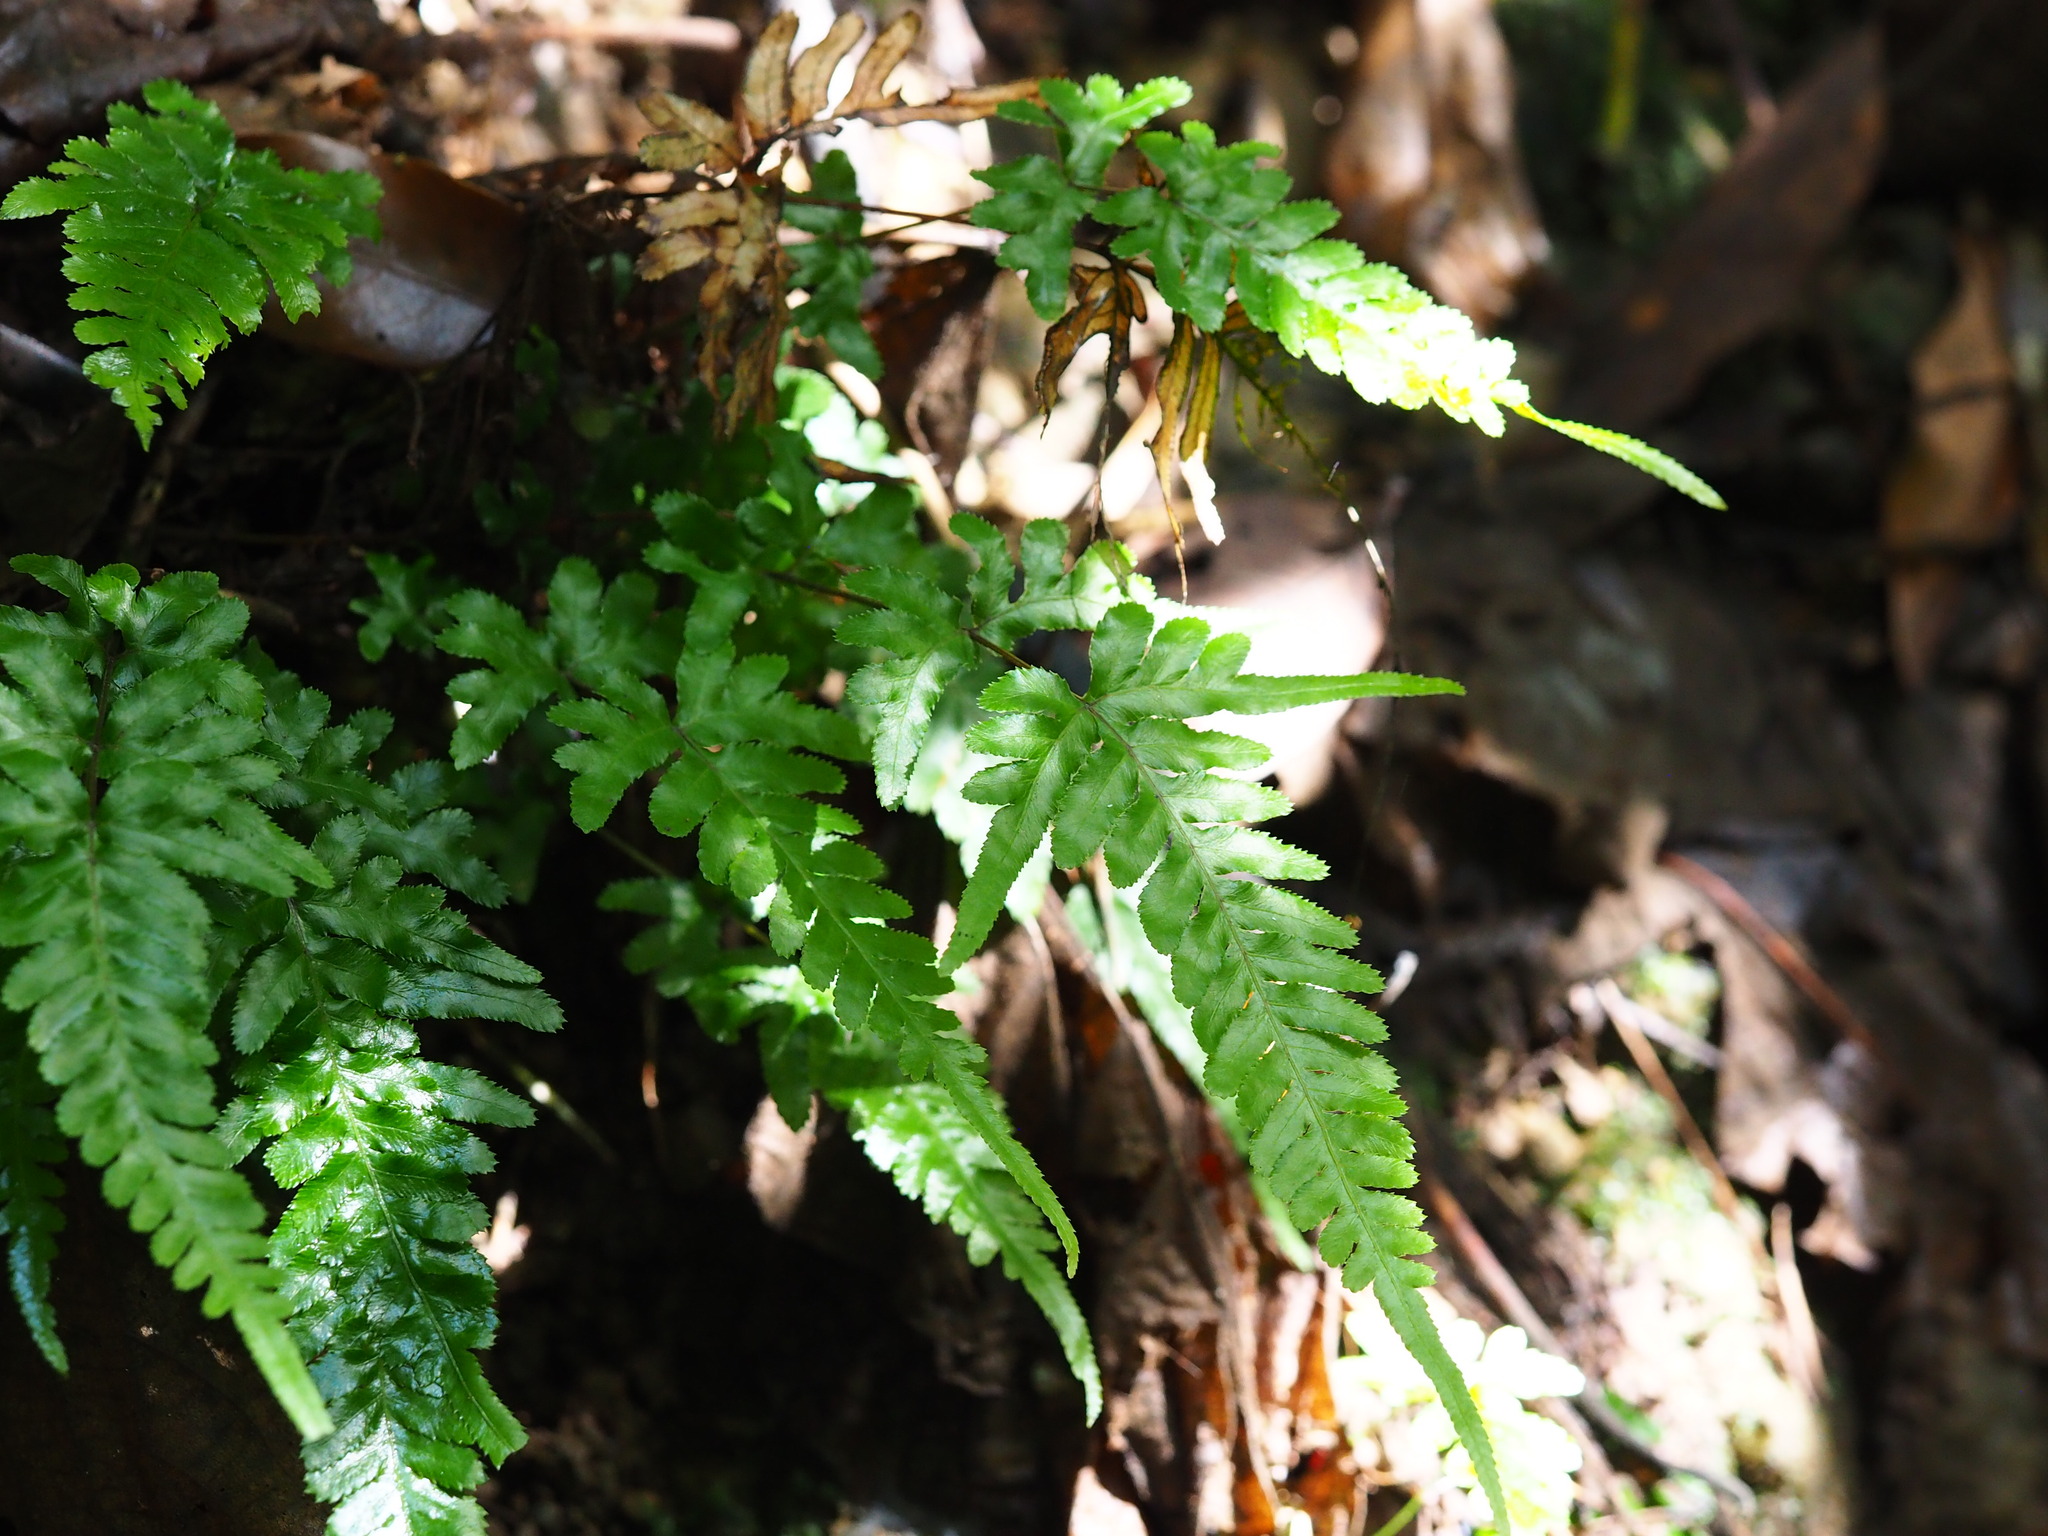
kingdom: Plantae
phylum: Tracheophyta
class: Polypodiopsida
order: Polypodiales
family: Pteridaceae
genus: Pteris
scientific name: Pteris dispar
